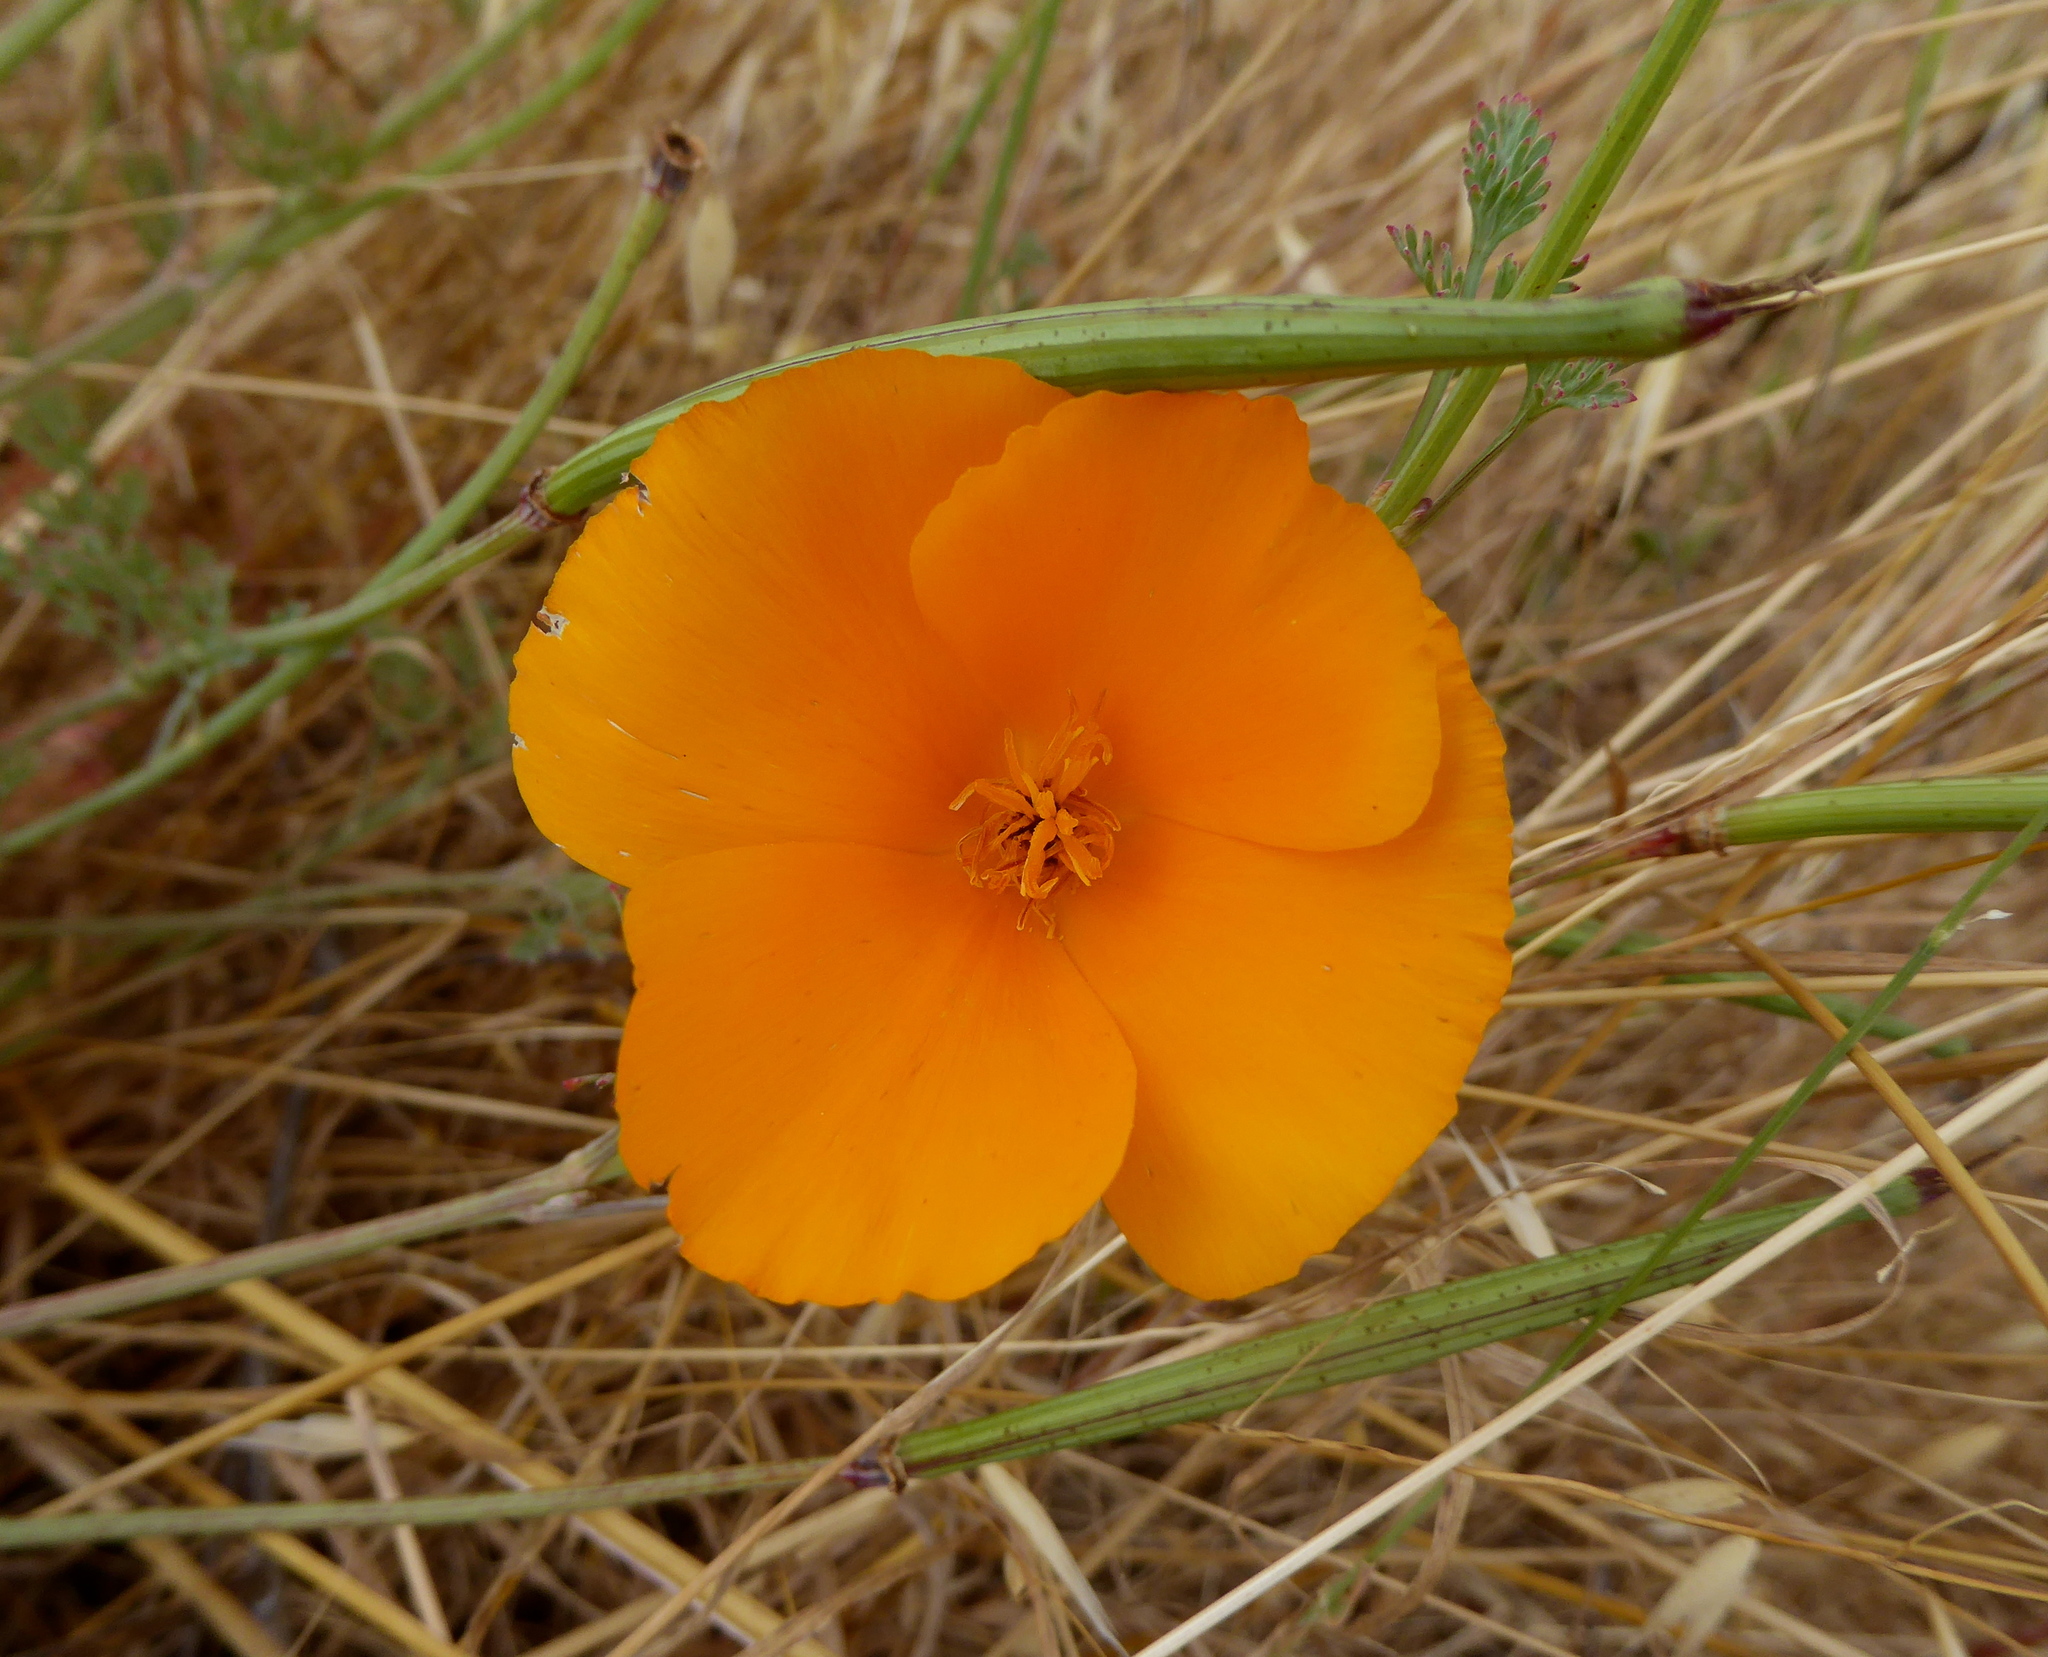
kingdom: Plantae
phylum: Tracheophyta
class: Magnoliopsida
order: Ranunculales
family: Papaveraceae
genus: Eschscholzia
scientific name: Eschscholzia californica
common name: California poppy
